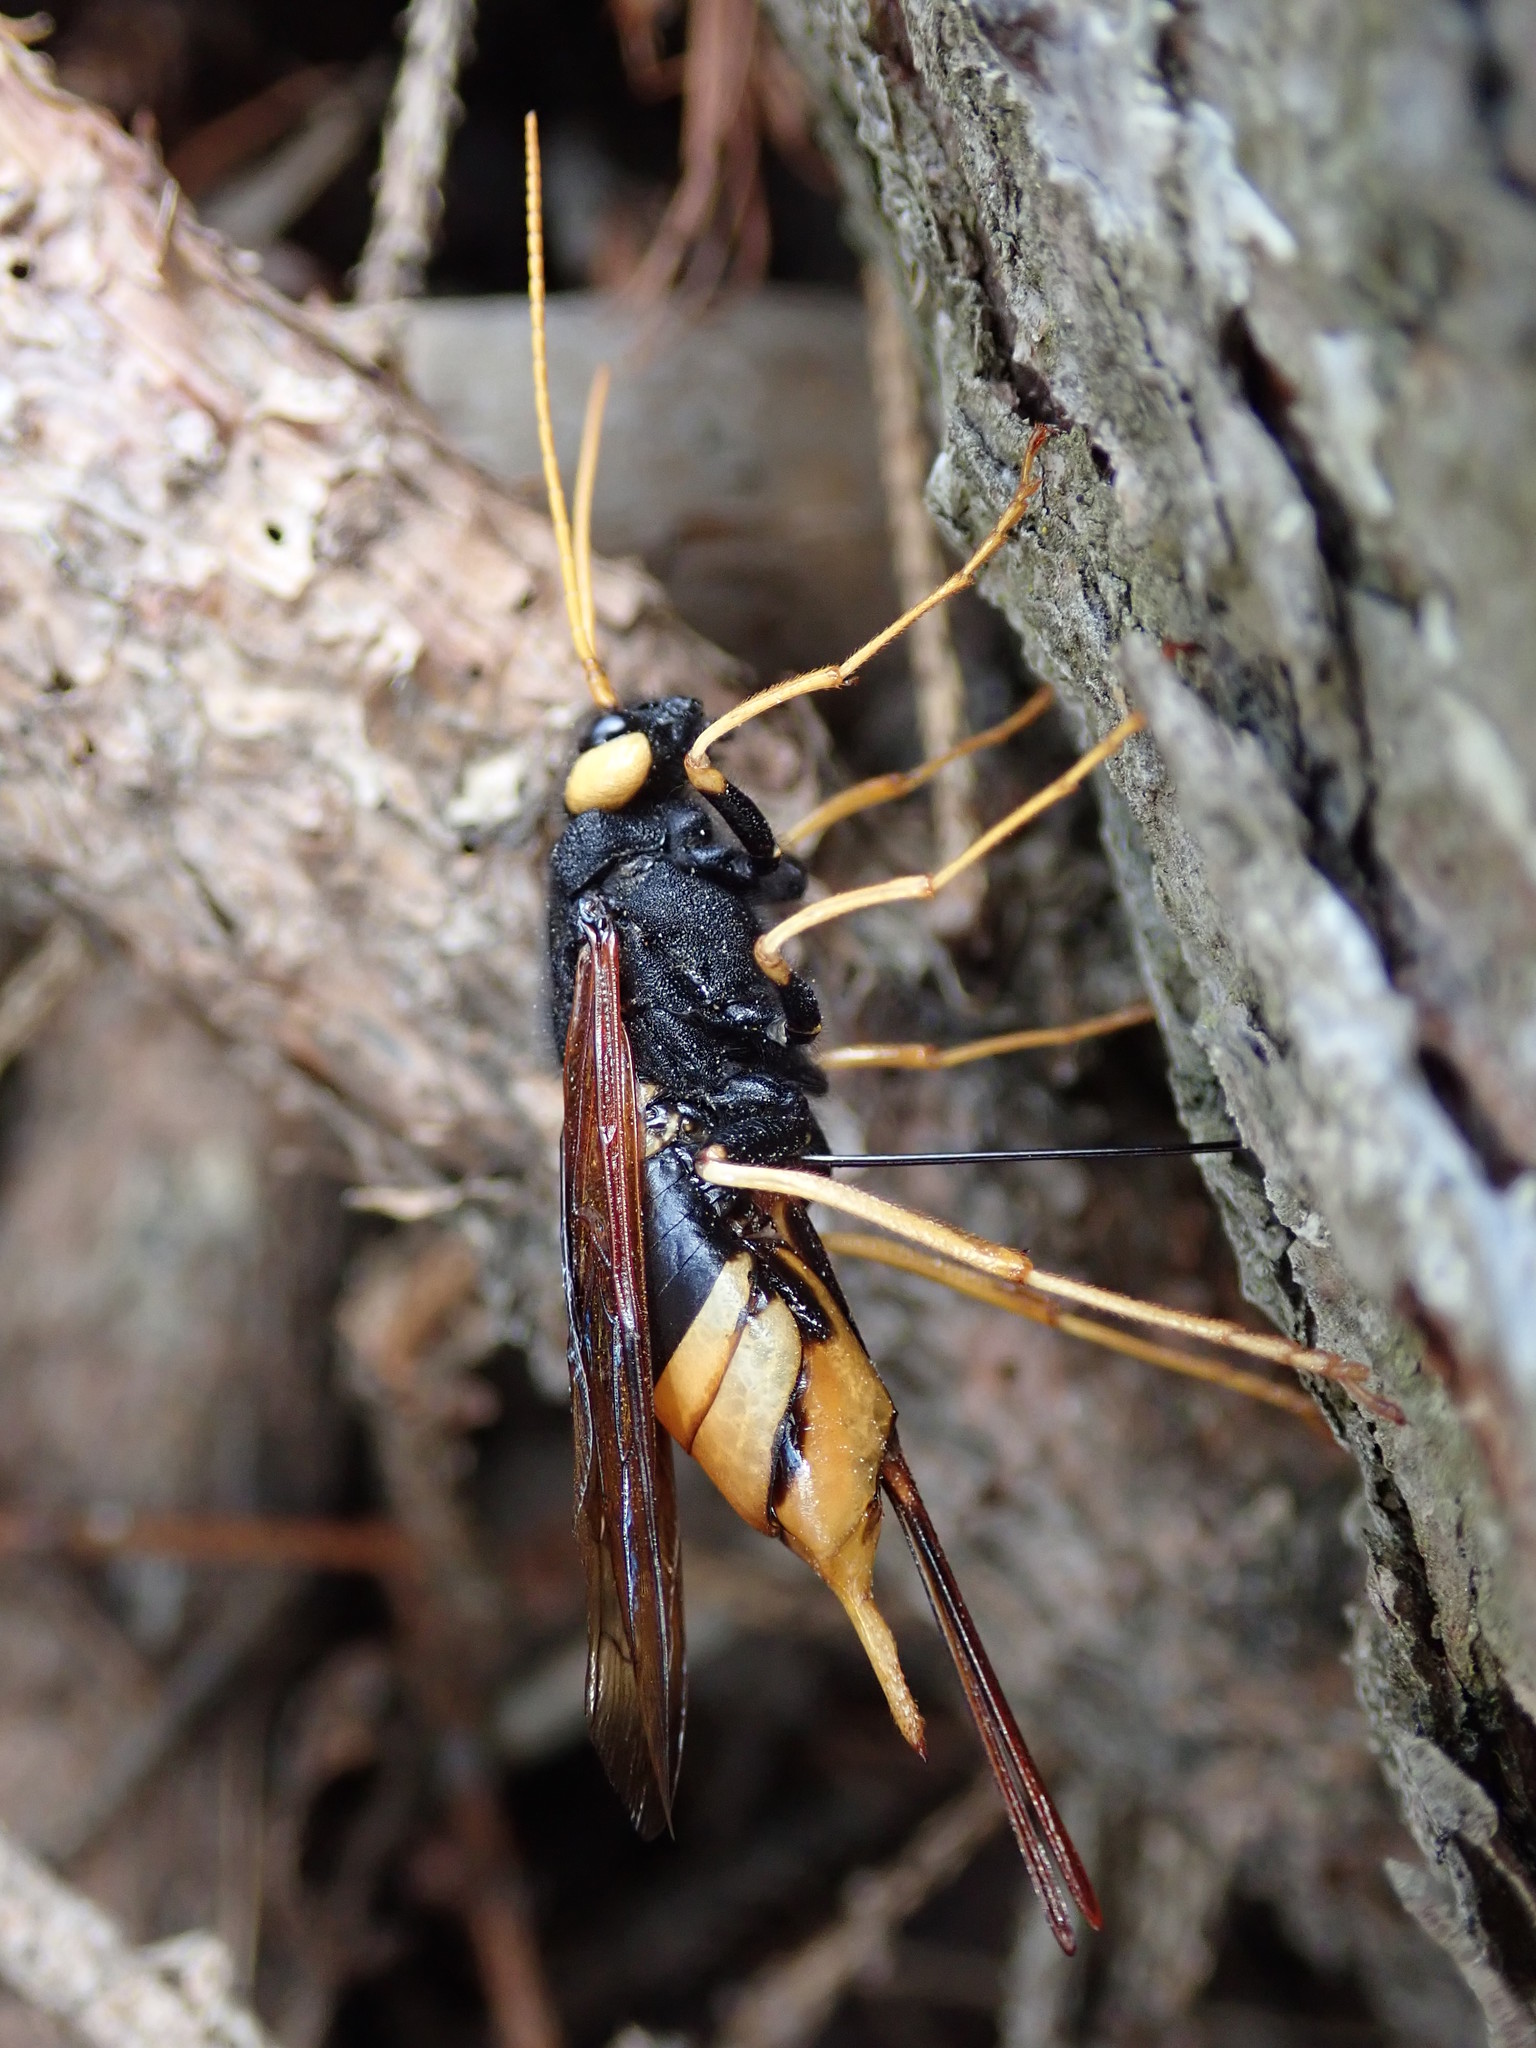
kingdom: Animalia
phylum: Arthropoda
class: Insecta
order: Hymenoptera
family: Siricidae
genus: Urocerus
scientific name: Urocerus gigas
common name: Giant woodwasp
